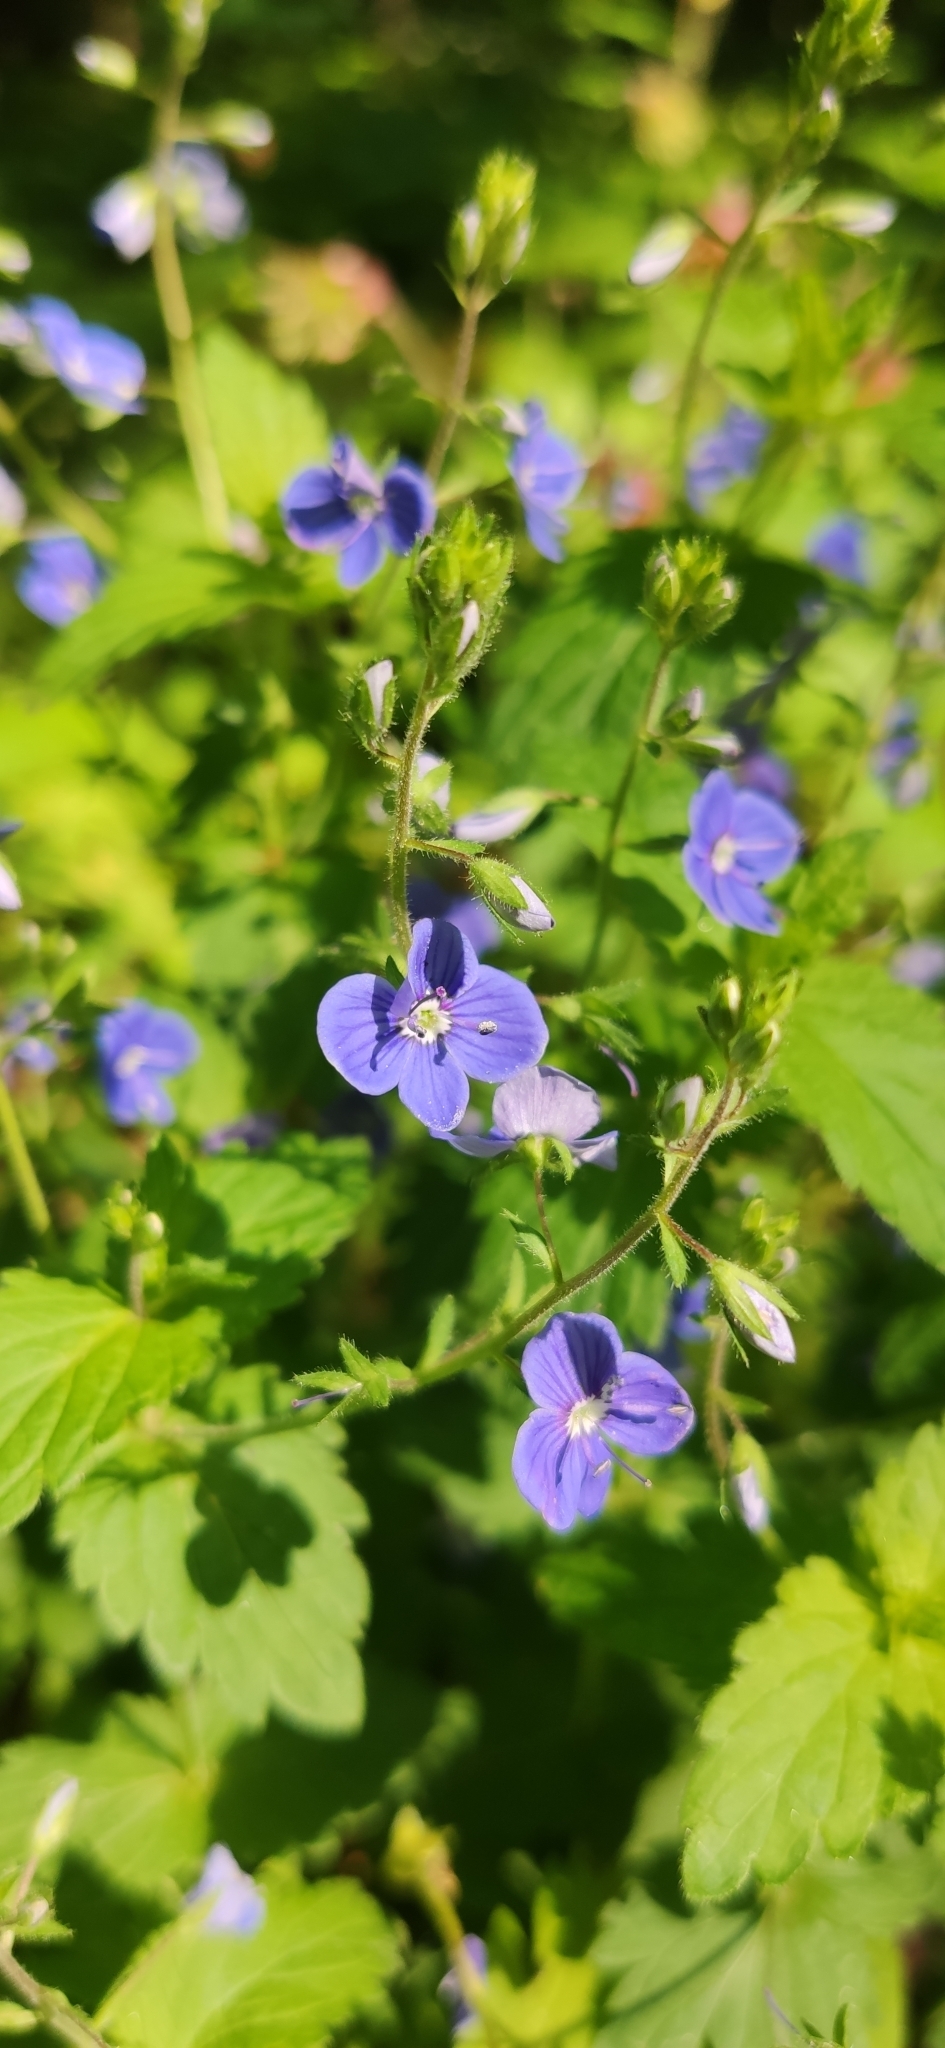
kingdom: Plantae
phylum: Tracheophyta
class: Magnoliopsida
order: Lamiales
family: Plantaginaceae
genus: Veronica
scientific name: Veronica chamaedrys
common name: Germander speedwell
